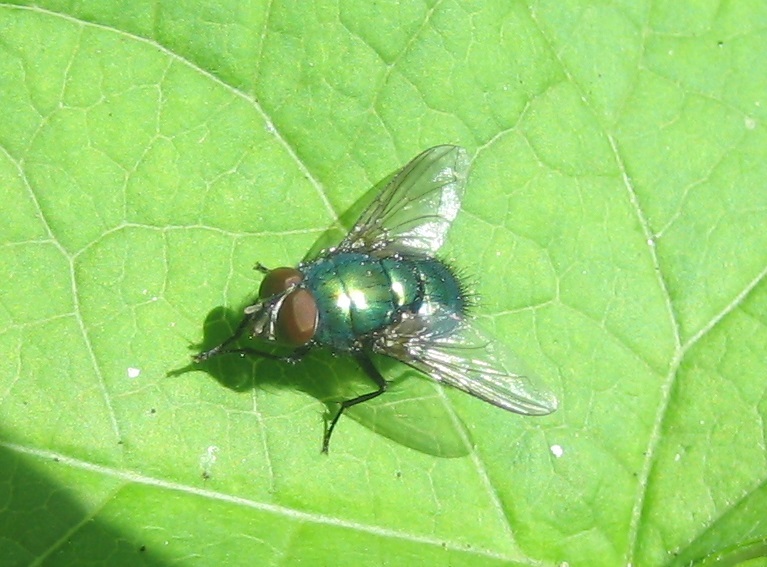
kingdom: Animalia
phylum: Arthropoda
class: Insecta
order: Diptera
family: Calliphoridae
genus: Lucilia
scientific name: Lucilia
